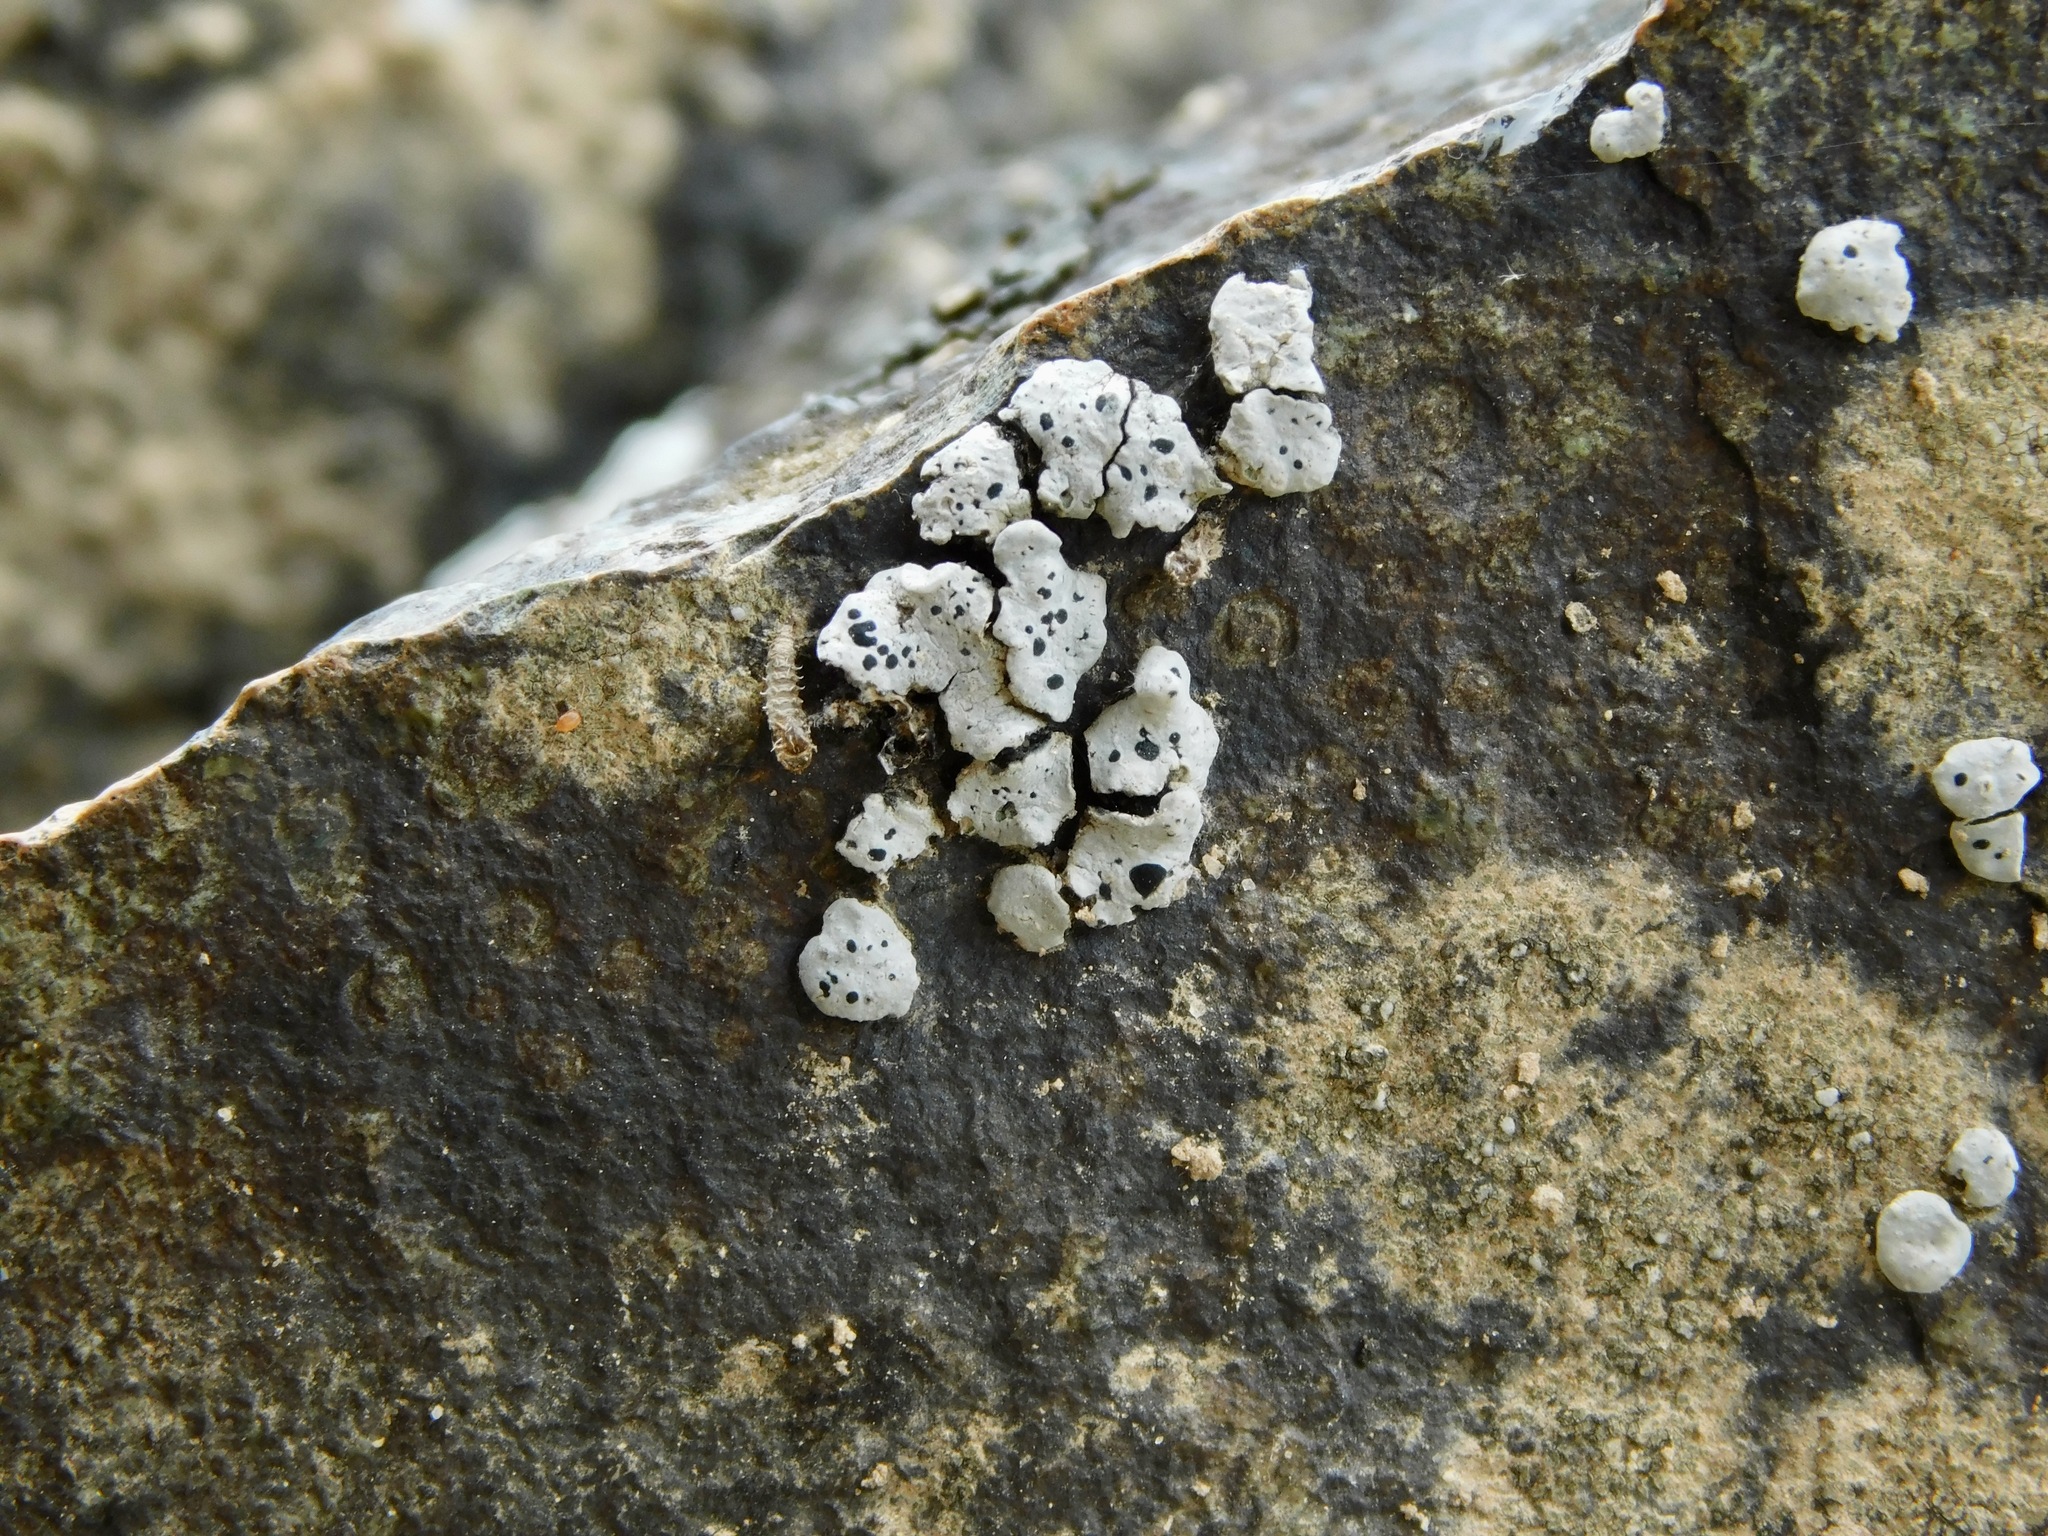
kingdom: Fungi
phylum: Ascomycota
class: Lecanoromycetes
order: Caliciales
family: Caliciaceae
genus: Dermiscellum
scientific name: Dermiscellum oulocheilum
